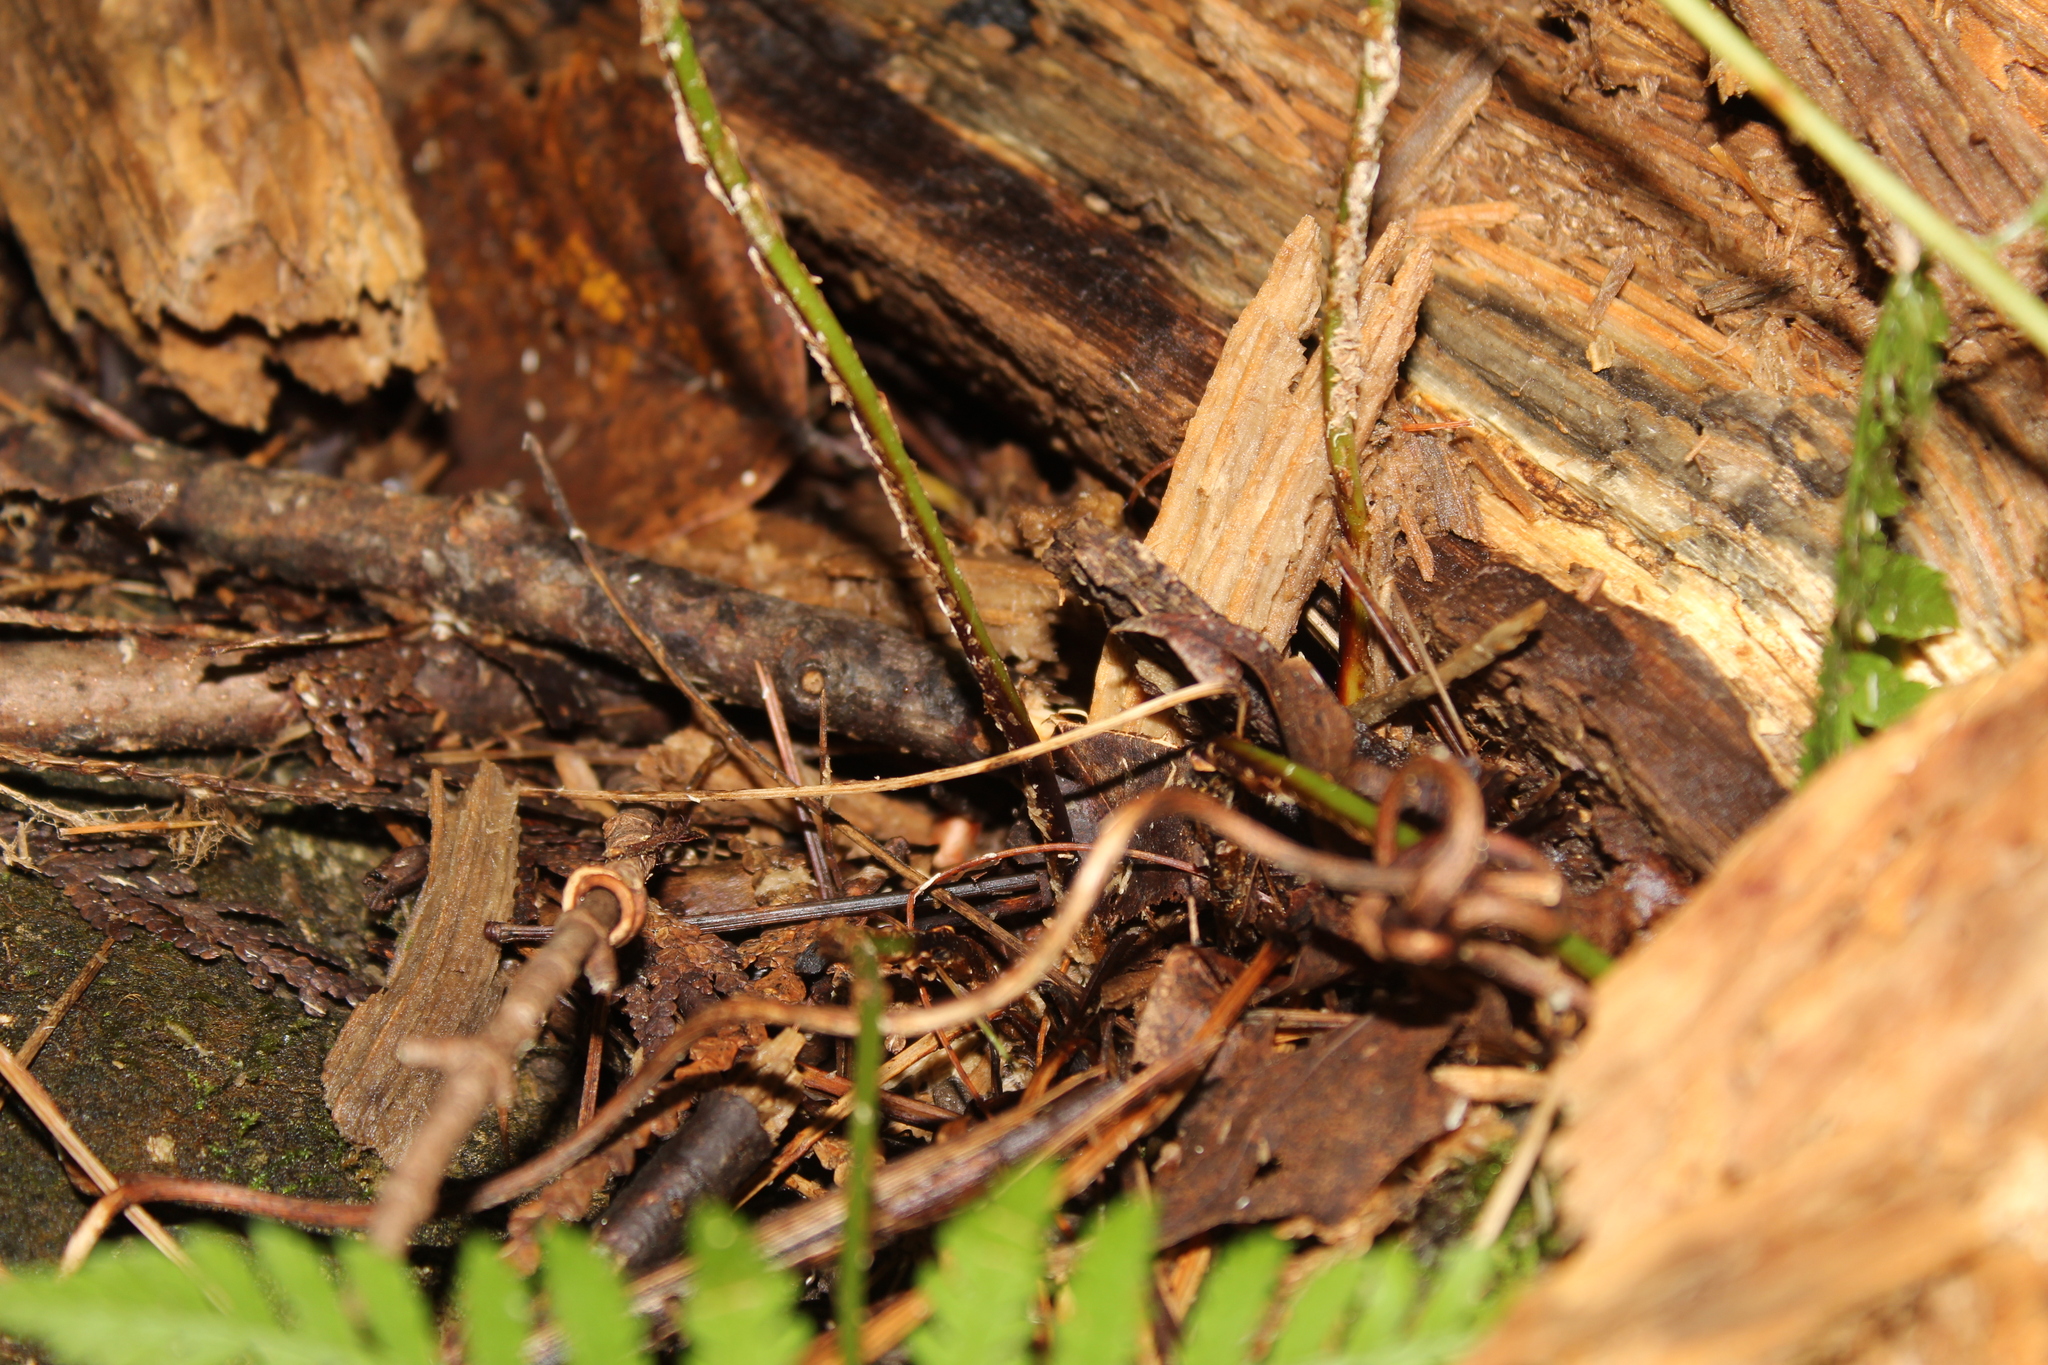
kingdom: Plantae
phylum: Tracheophyta
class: Polypodiopsida
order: Polypodiales
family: Dryopteridaceae
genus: Dryopteris
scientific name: Dryopteris carthusiana
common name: Narrow buckler-fern
